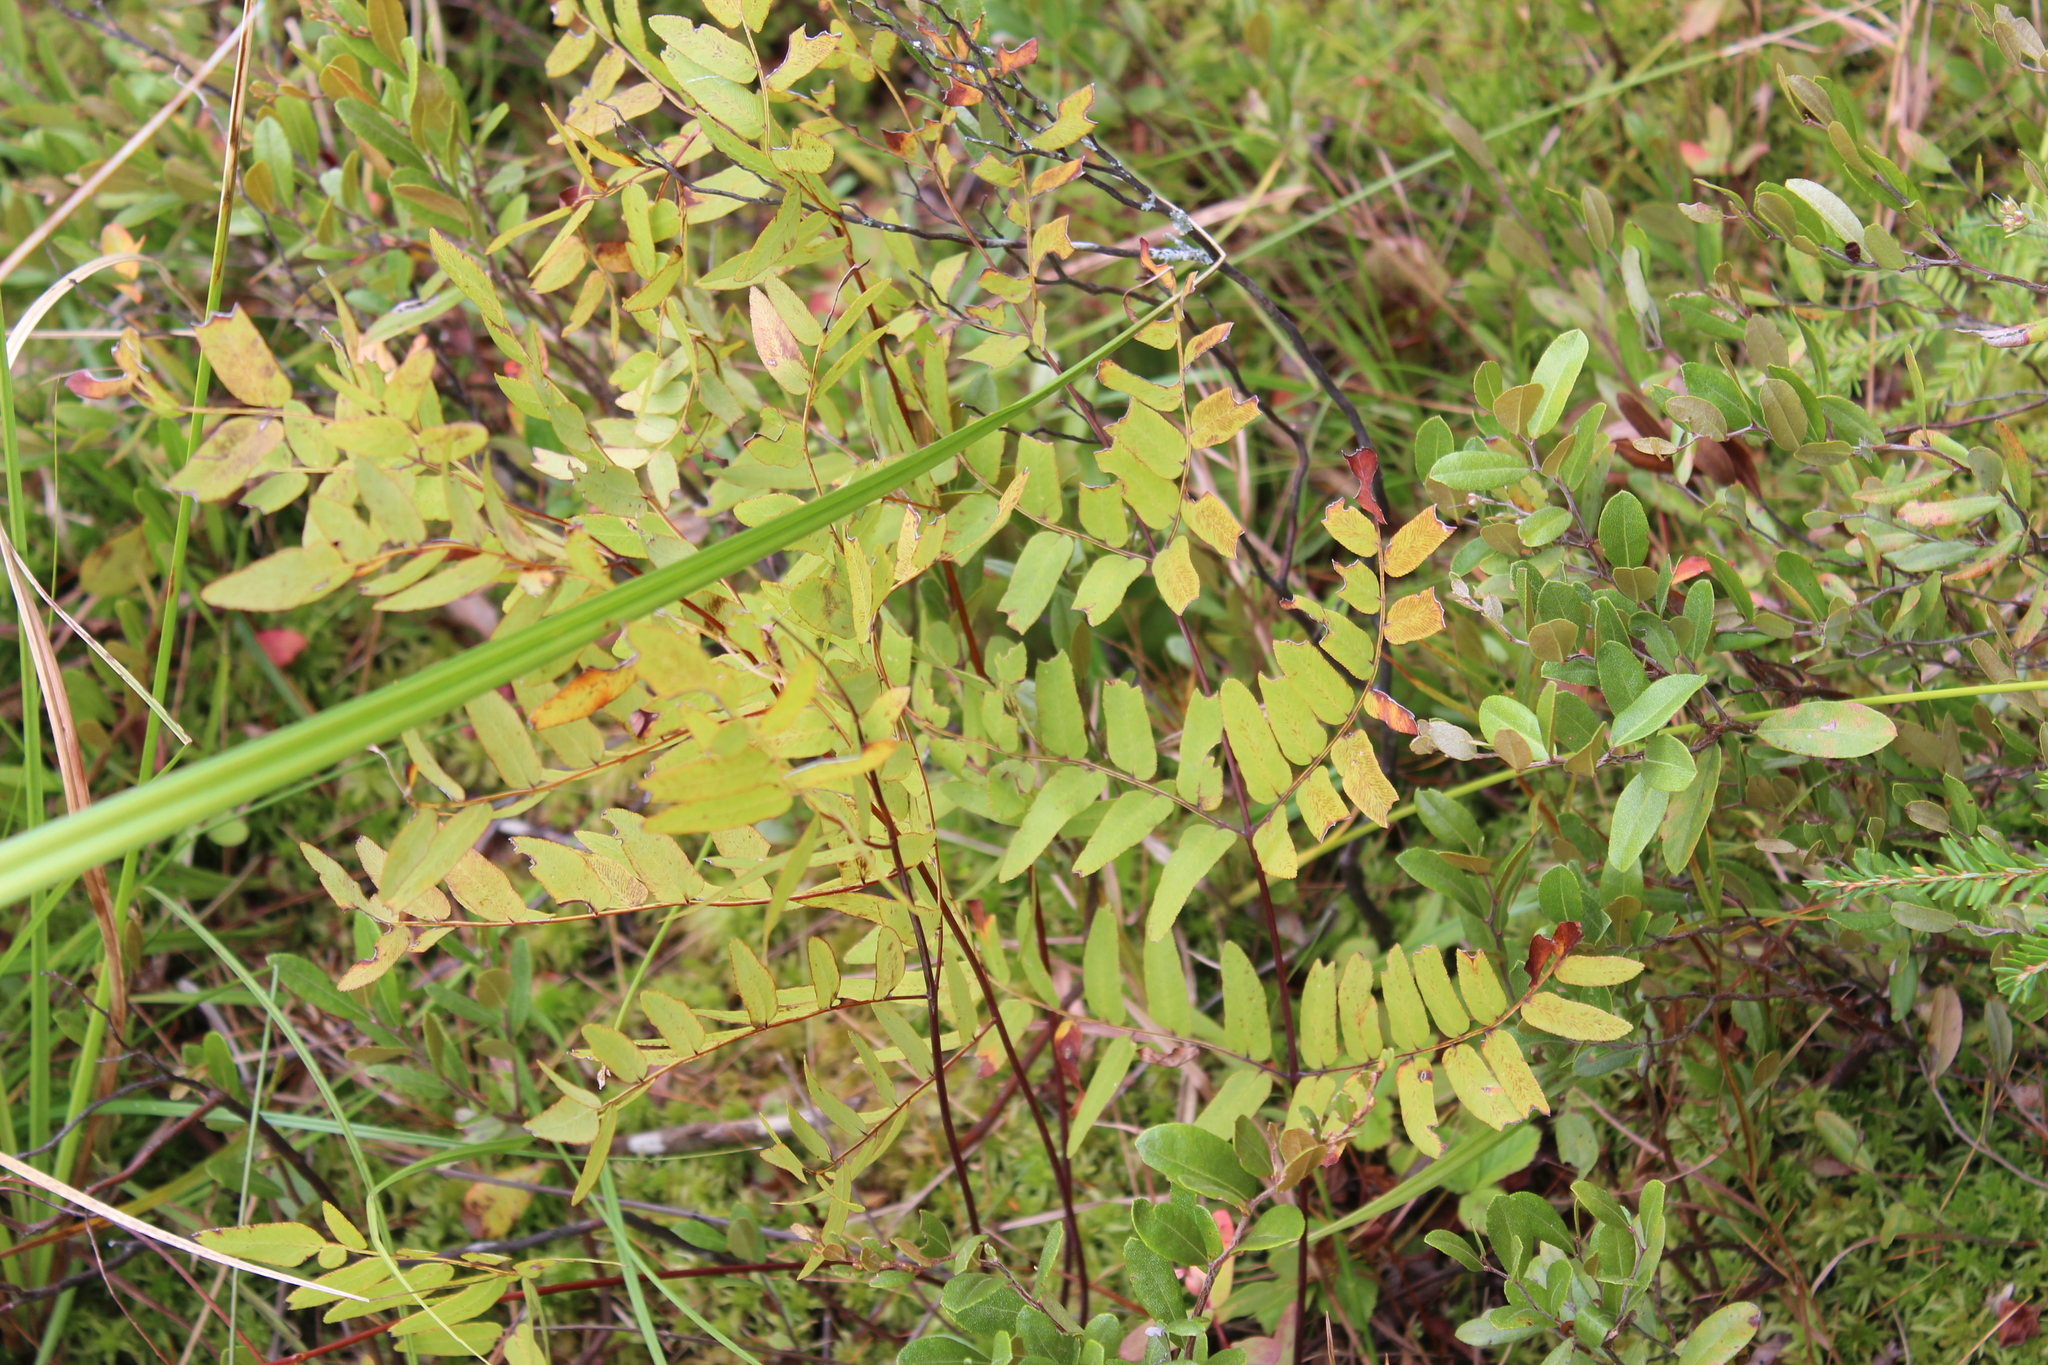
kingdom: Plantae
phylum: Tracheophyta
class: Polypodiopsida
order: Osmundales
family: Osmundaceae
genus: Osmunda
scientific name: Osmunda spectabilis
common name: American royal fern
